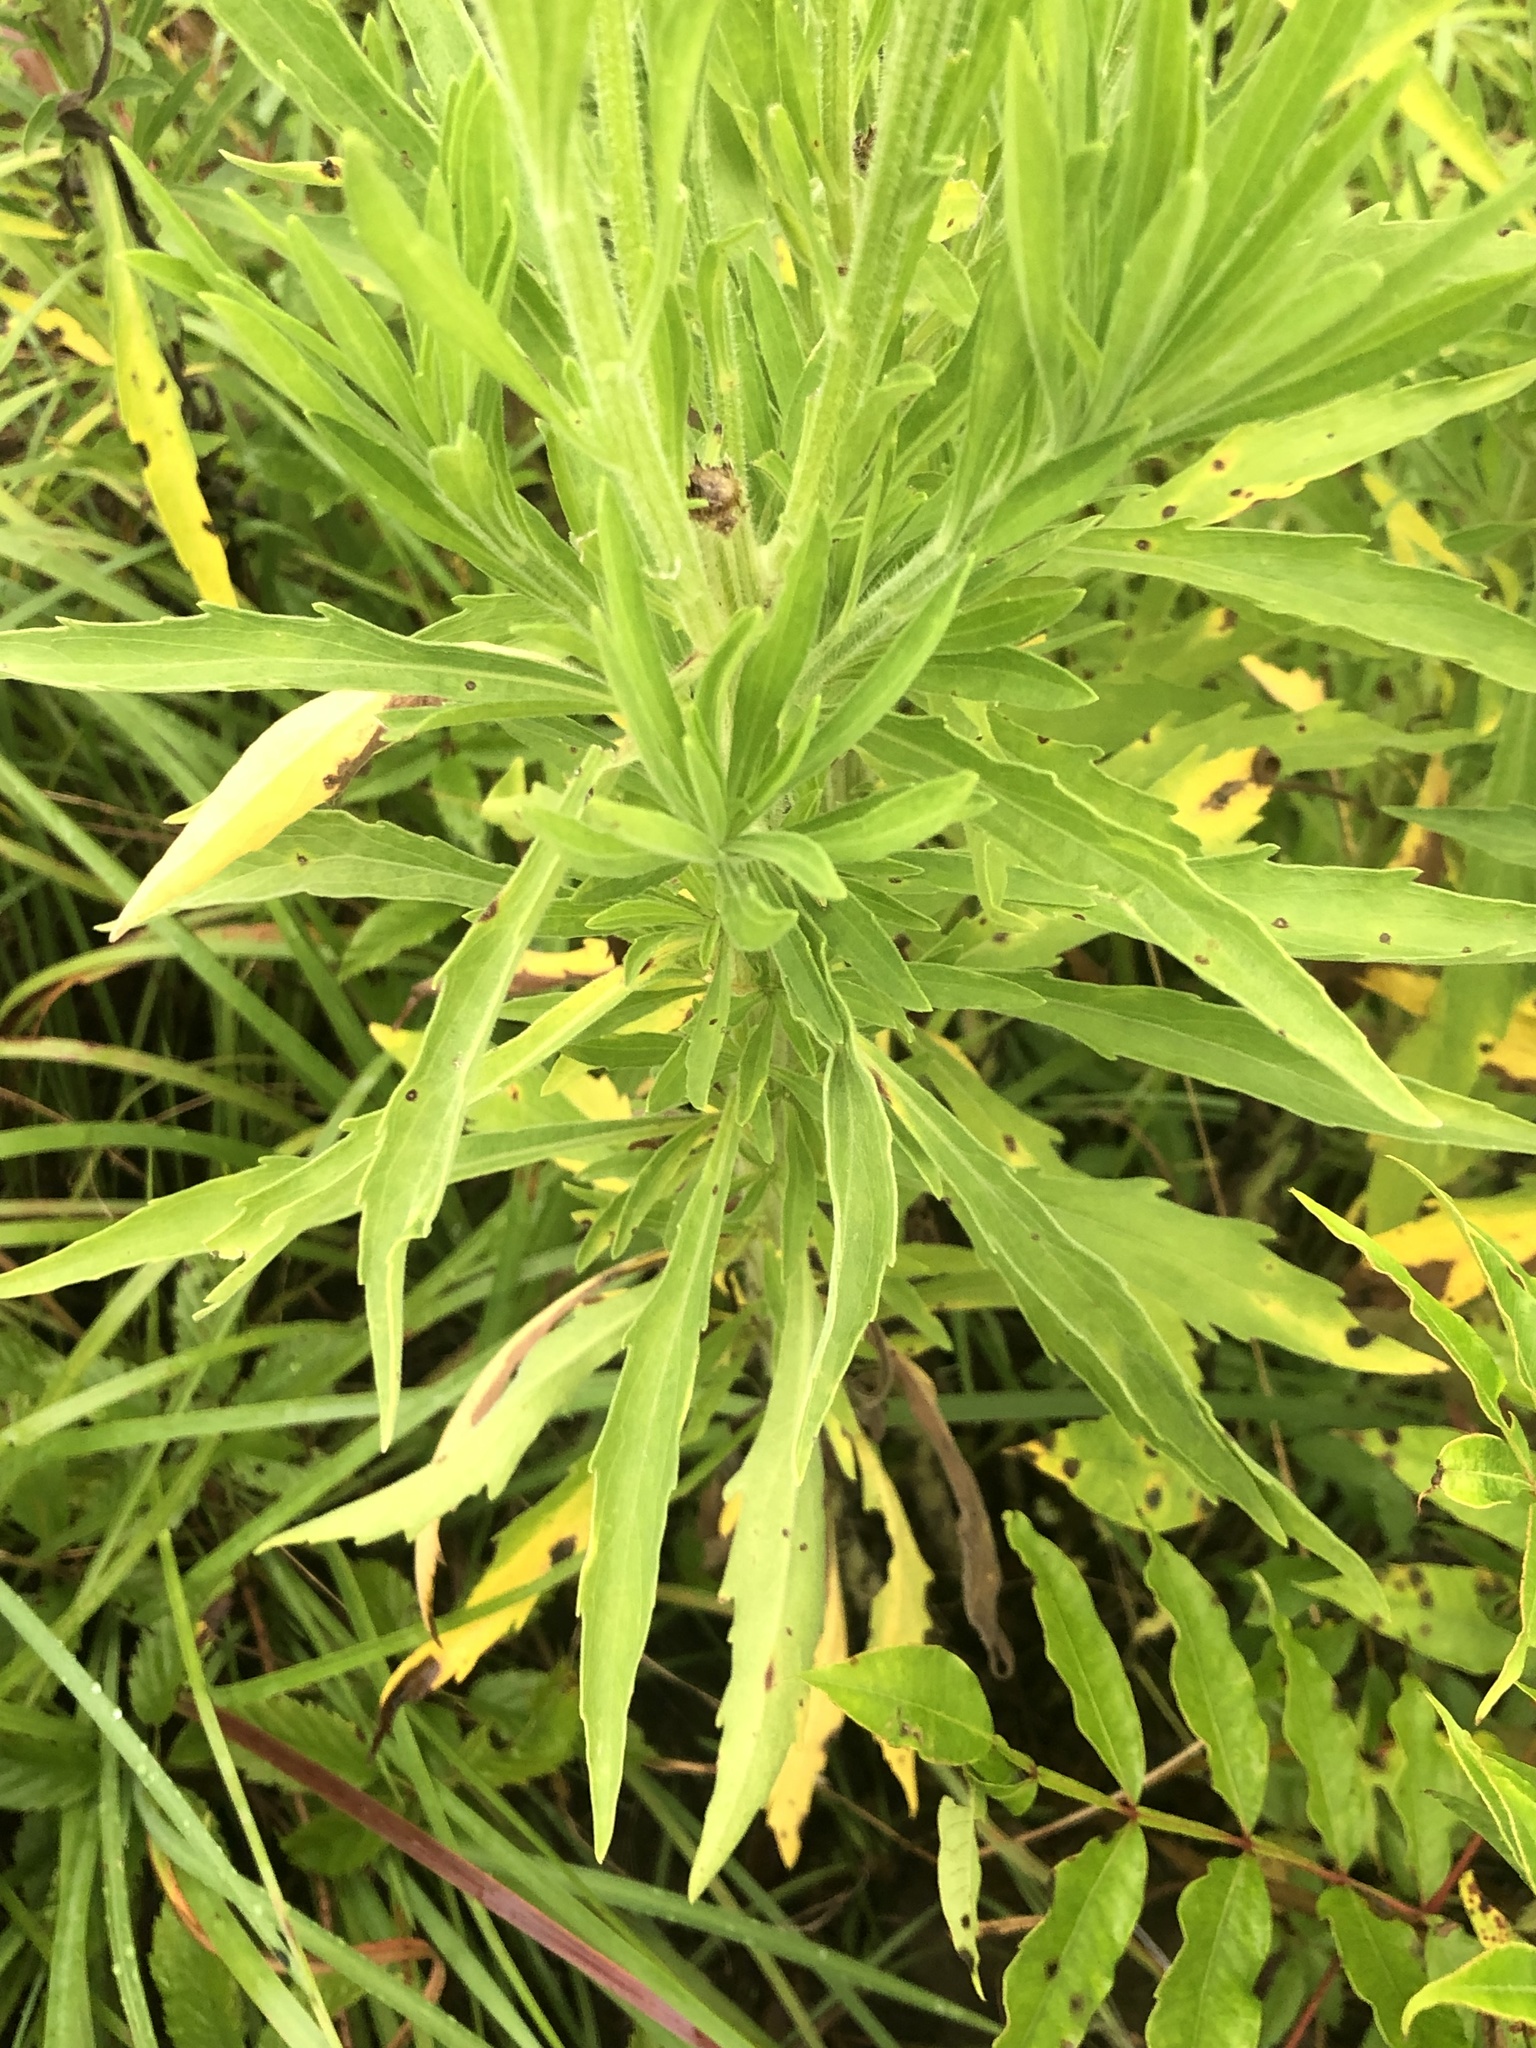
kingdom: Plantae
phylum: Tracheophyta
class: Magnoliopsida
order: Asterales
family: Asteraceae
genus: Erigeron
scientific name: Erigeron canadensis
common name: Canadian fleabane
